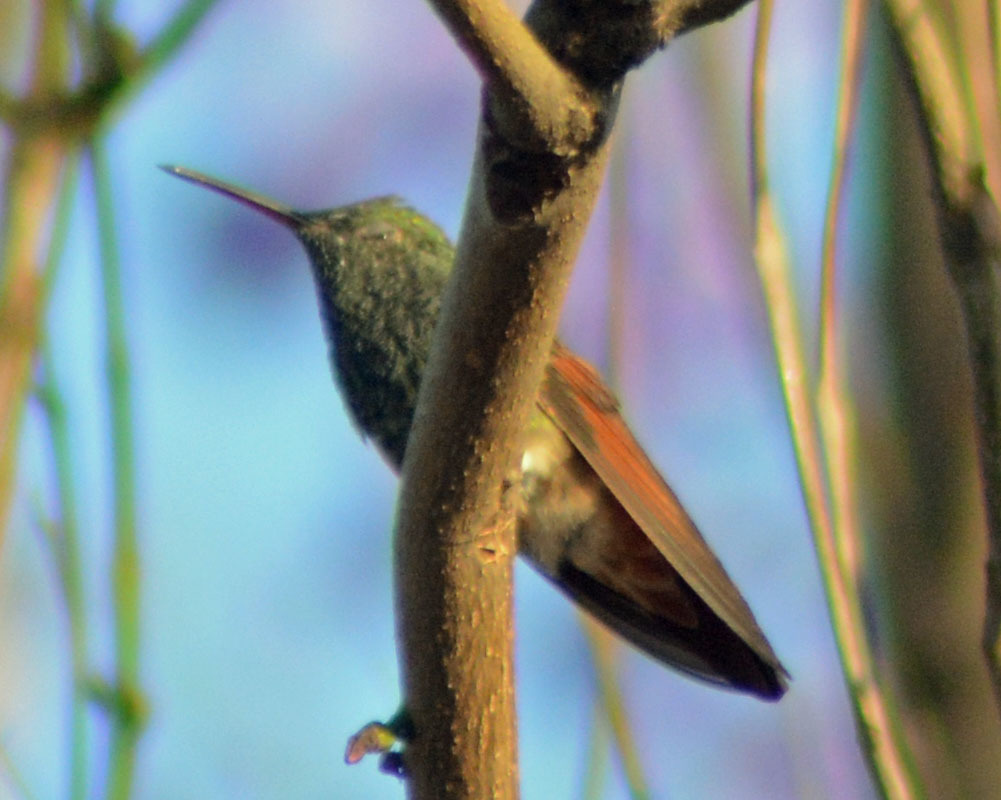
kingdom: Animalia
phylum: Chordata
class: Aves
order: Apodiformes
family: Trochilidae
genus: Saucerottia
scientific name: Saucerottia beryllina
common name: Berylline hummingbird
